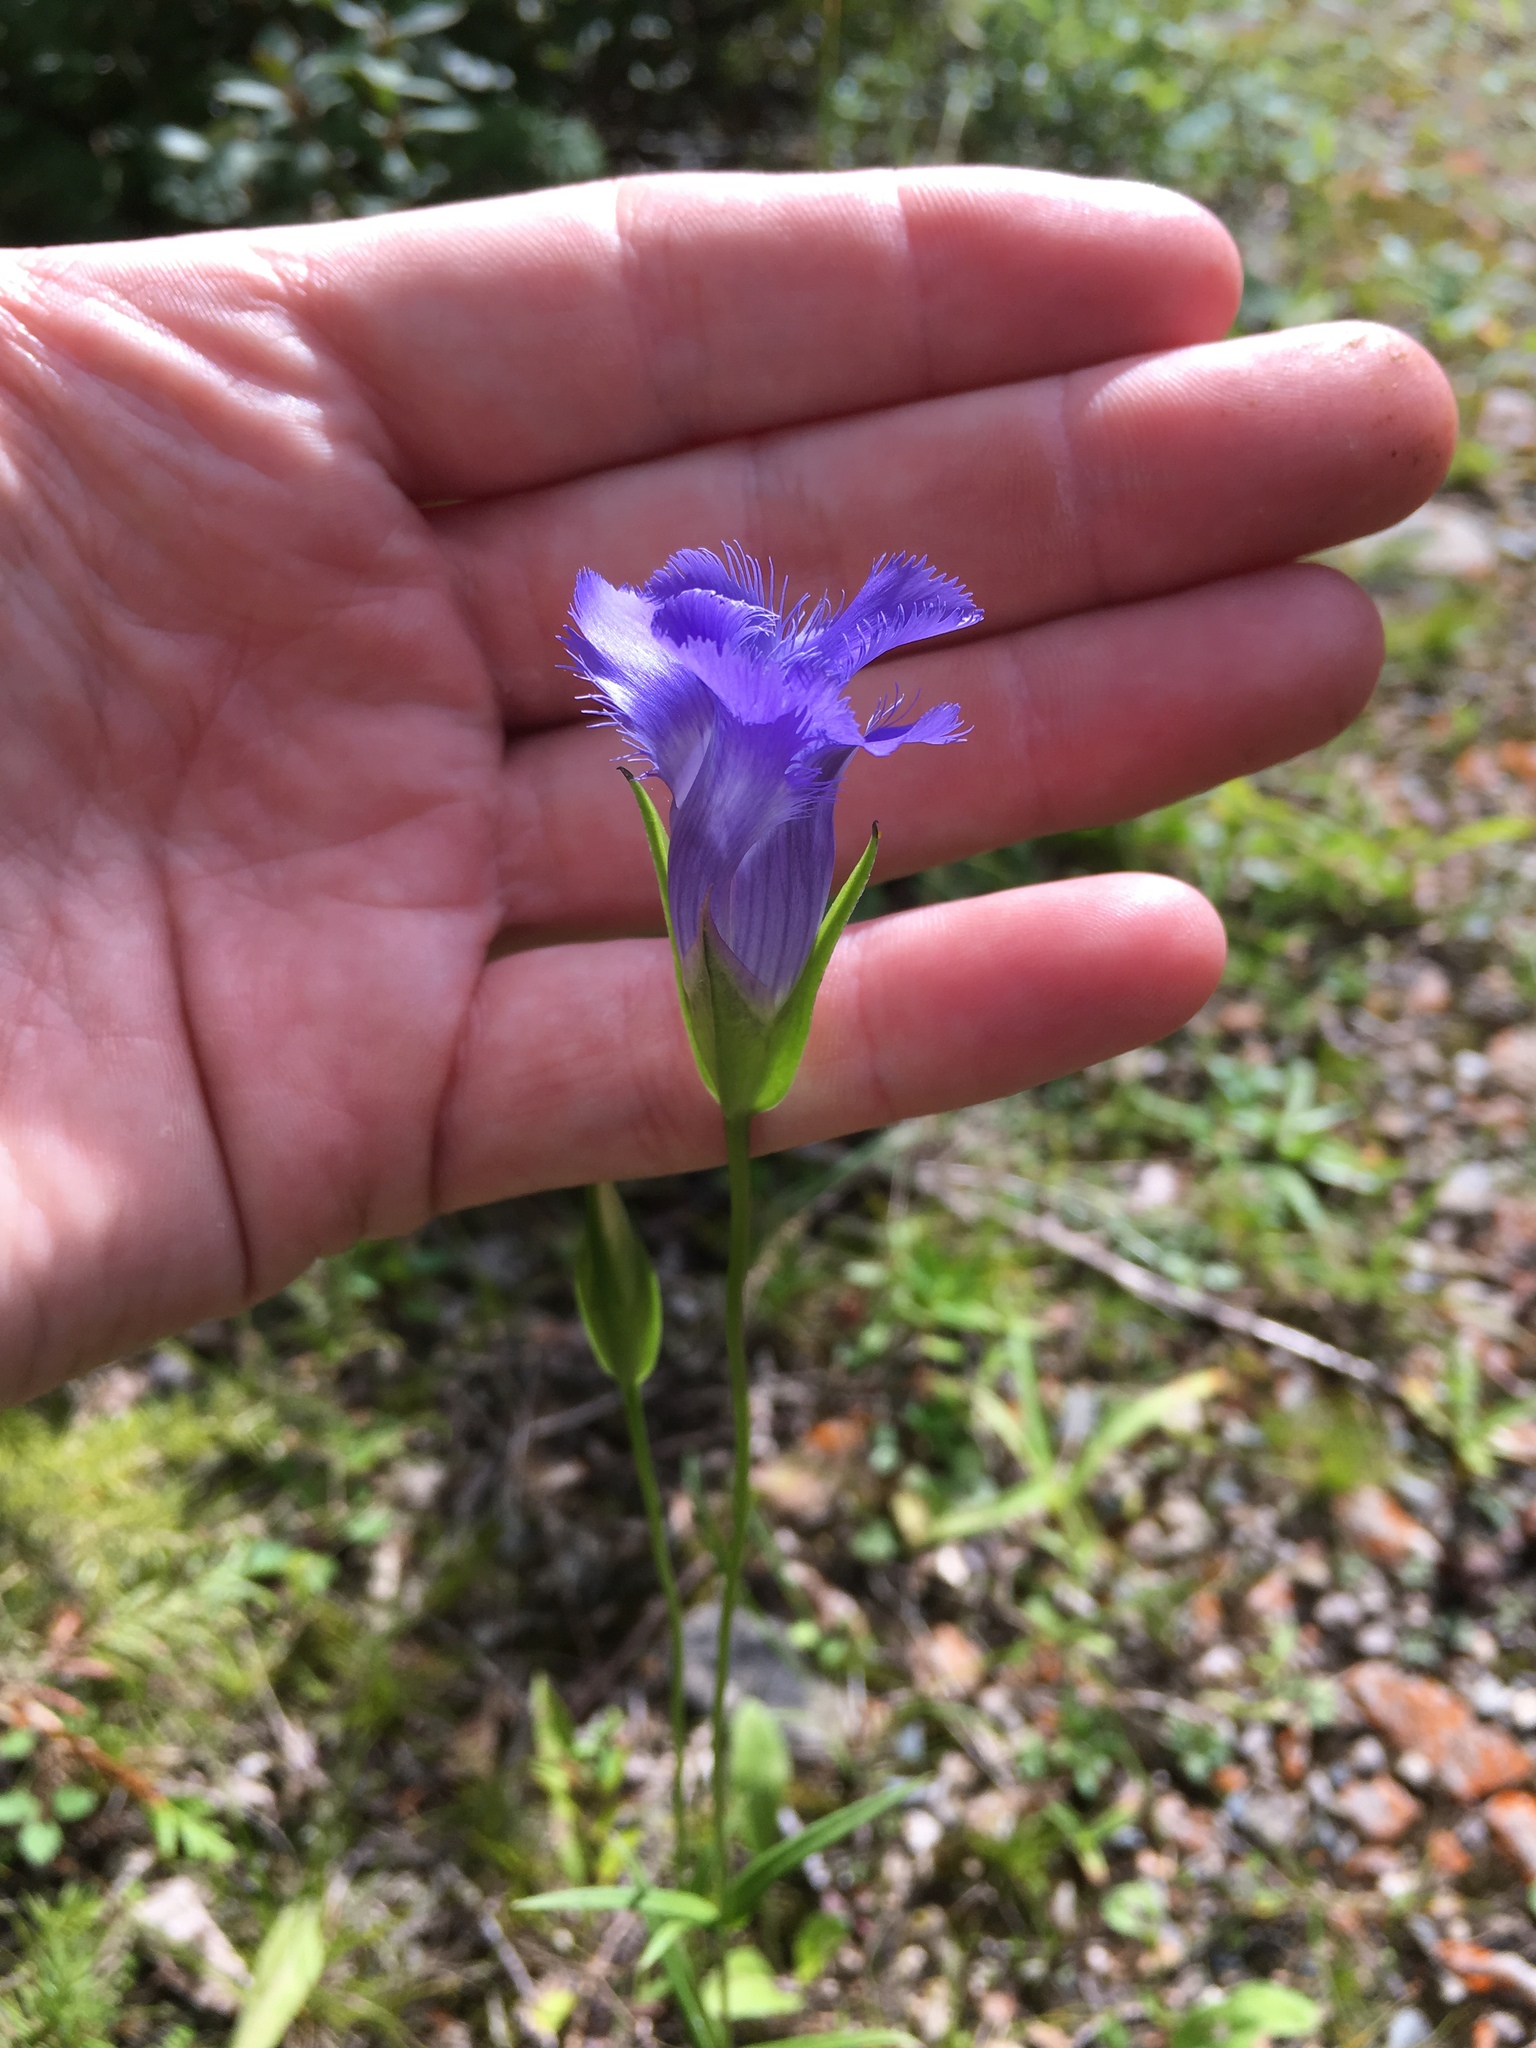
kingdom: Plantae
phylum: Tracheophyta
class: Magnoliopsida
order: Gentianales
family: Gentianaceae
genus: Gentianopsis
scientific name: Gentianopsis virgata
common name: Lesser fringed-gentian
